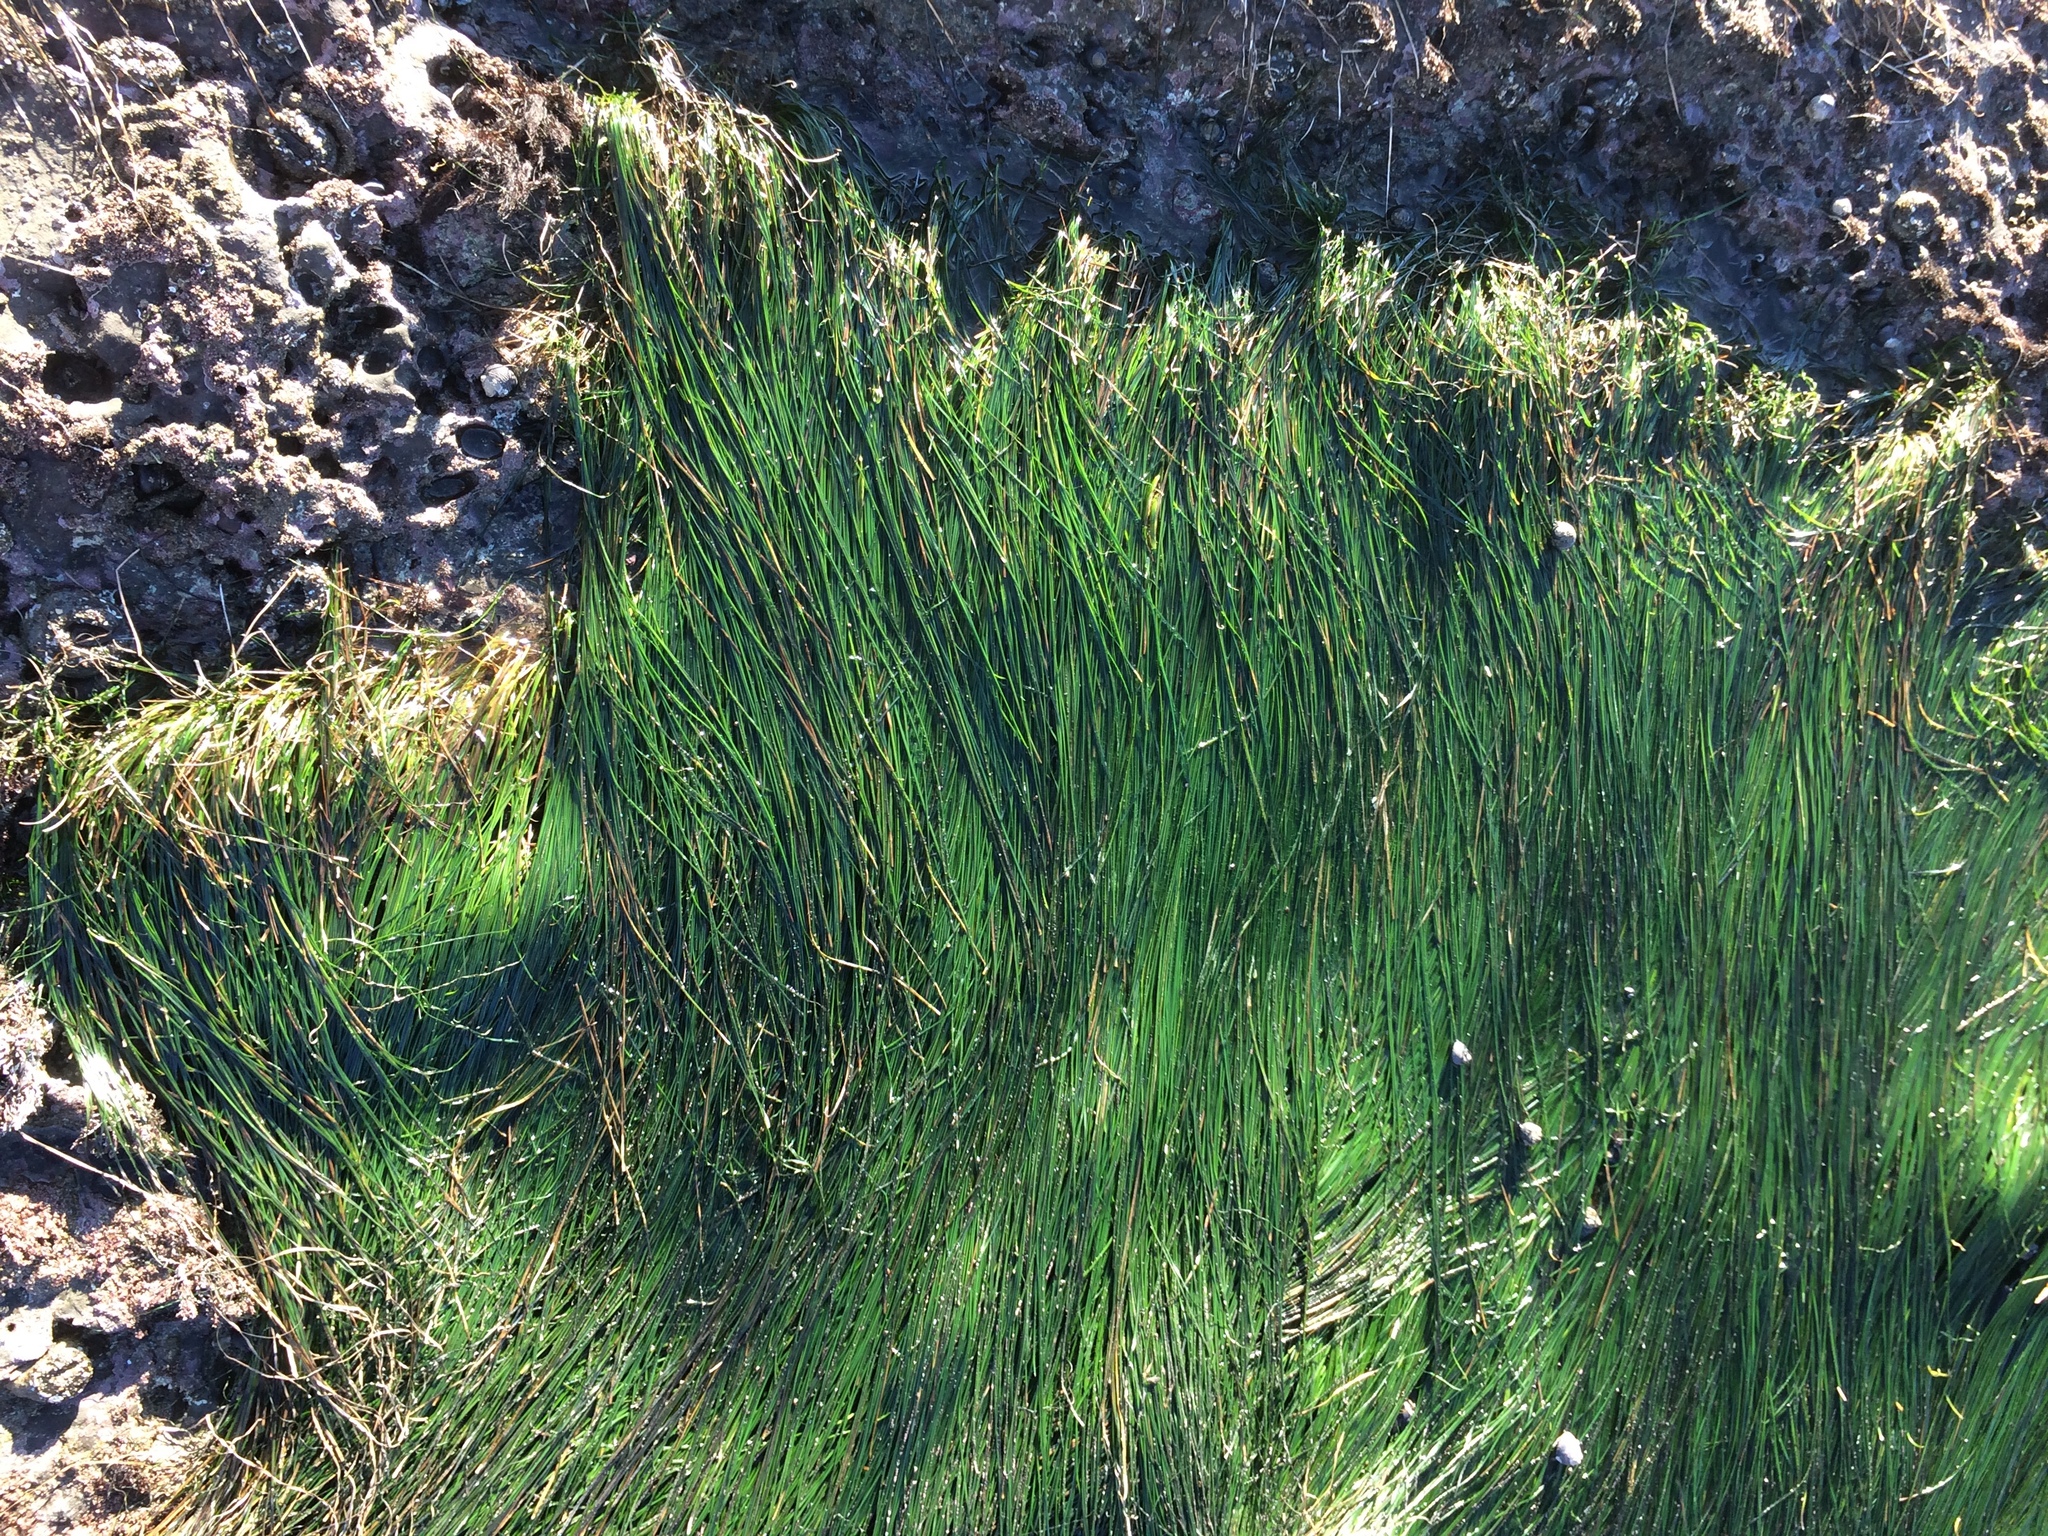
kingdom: Plantae
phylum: Tracheophyta
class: Liliopsida
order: Alismatales
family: Zosteraceae
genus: Phyllospadix
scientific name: Phyllospadix torreyi
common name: Surfgrass
